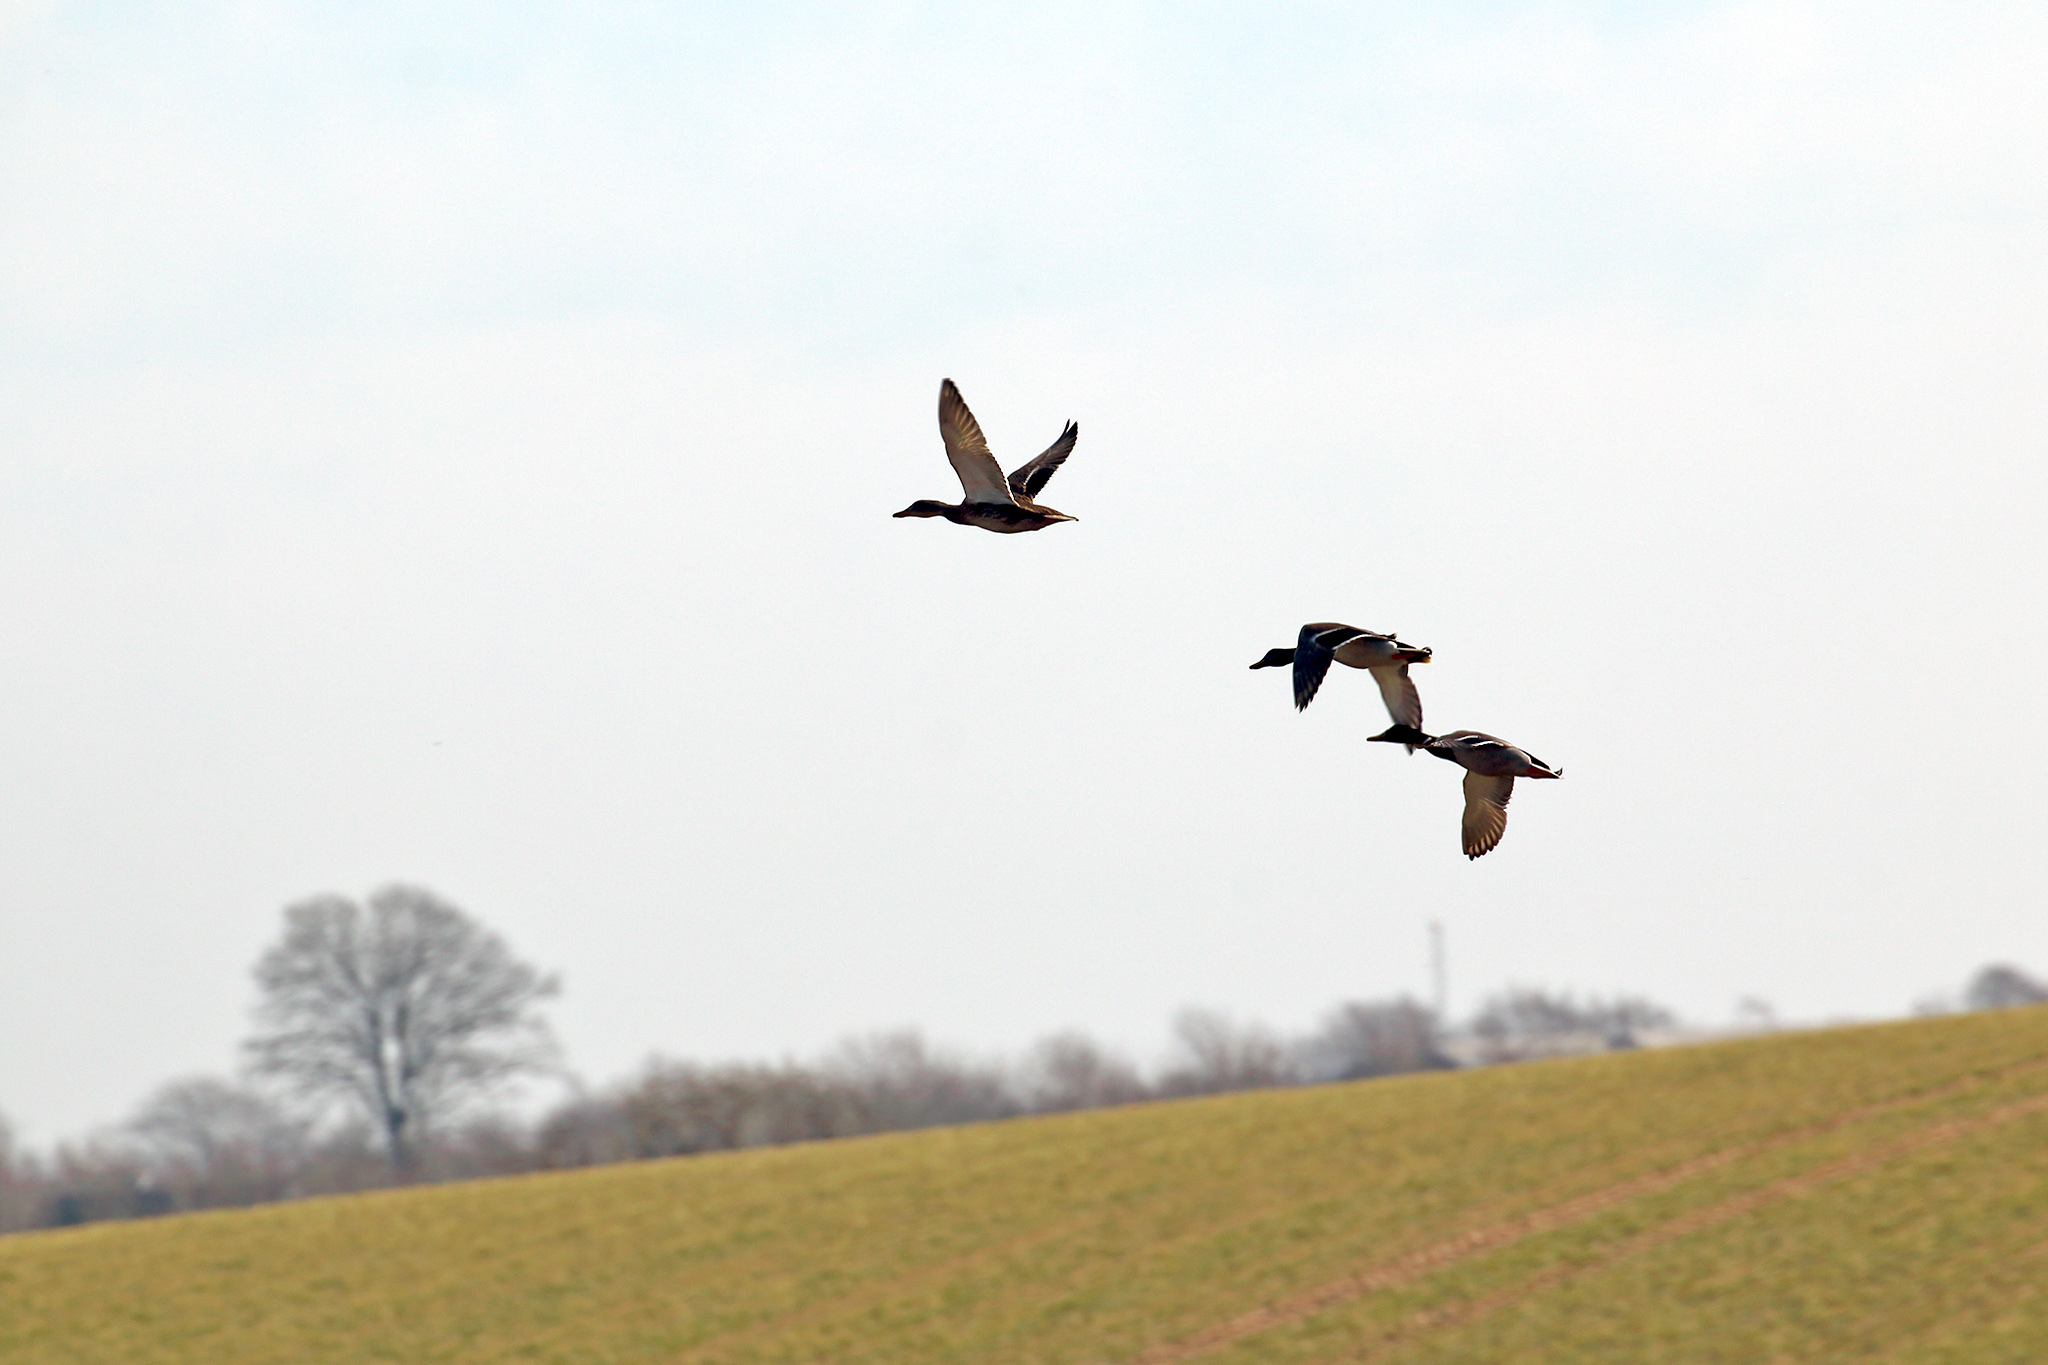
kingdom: Animalia
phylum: Chordata
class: Aves
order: Anseriformes
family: Anatidae
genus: Anas
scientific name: Anas platyrhynchos
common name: Mallard
